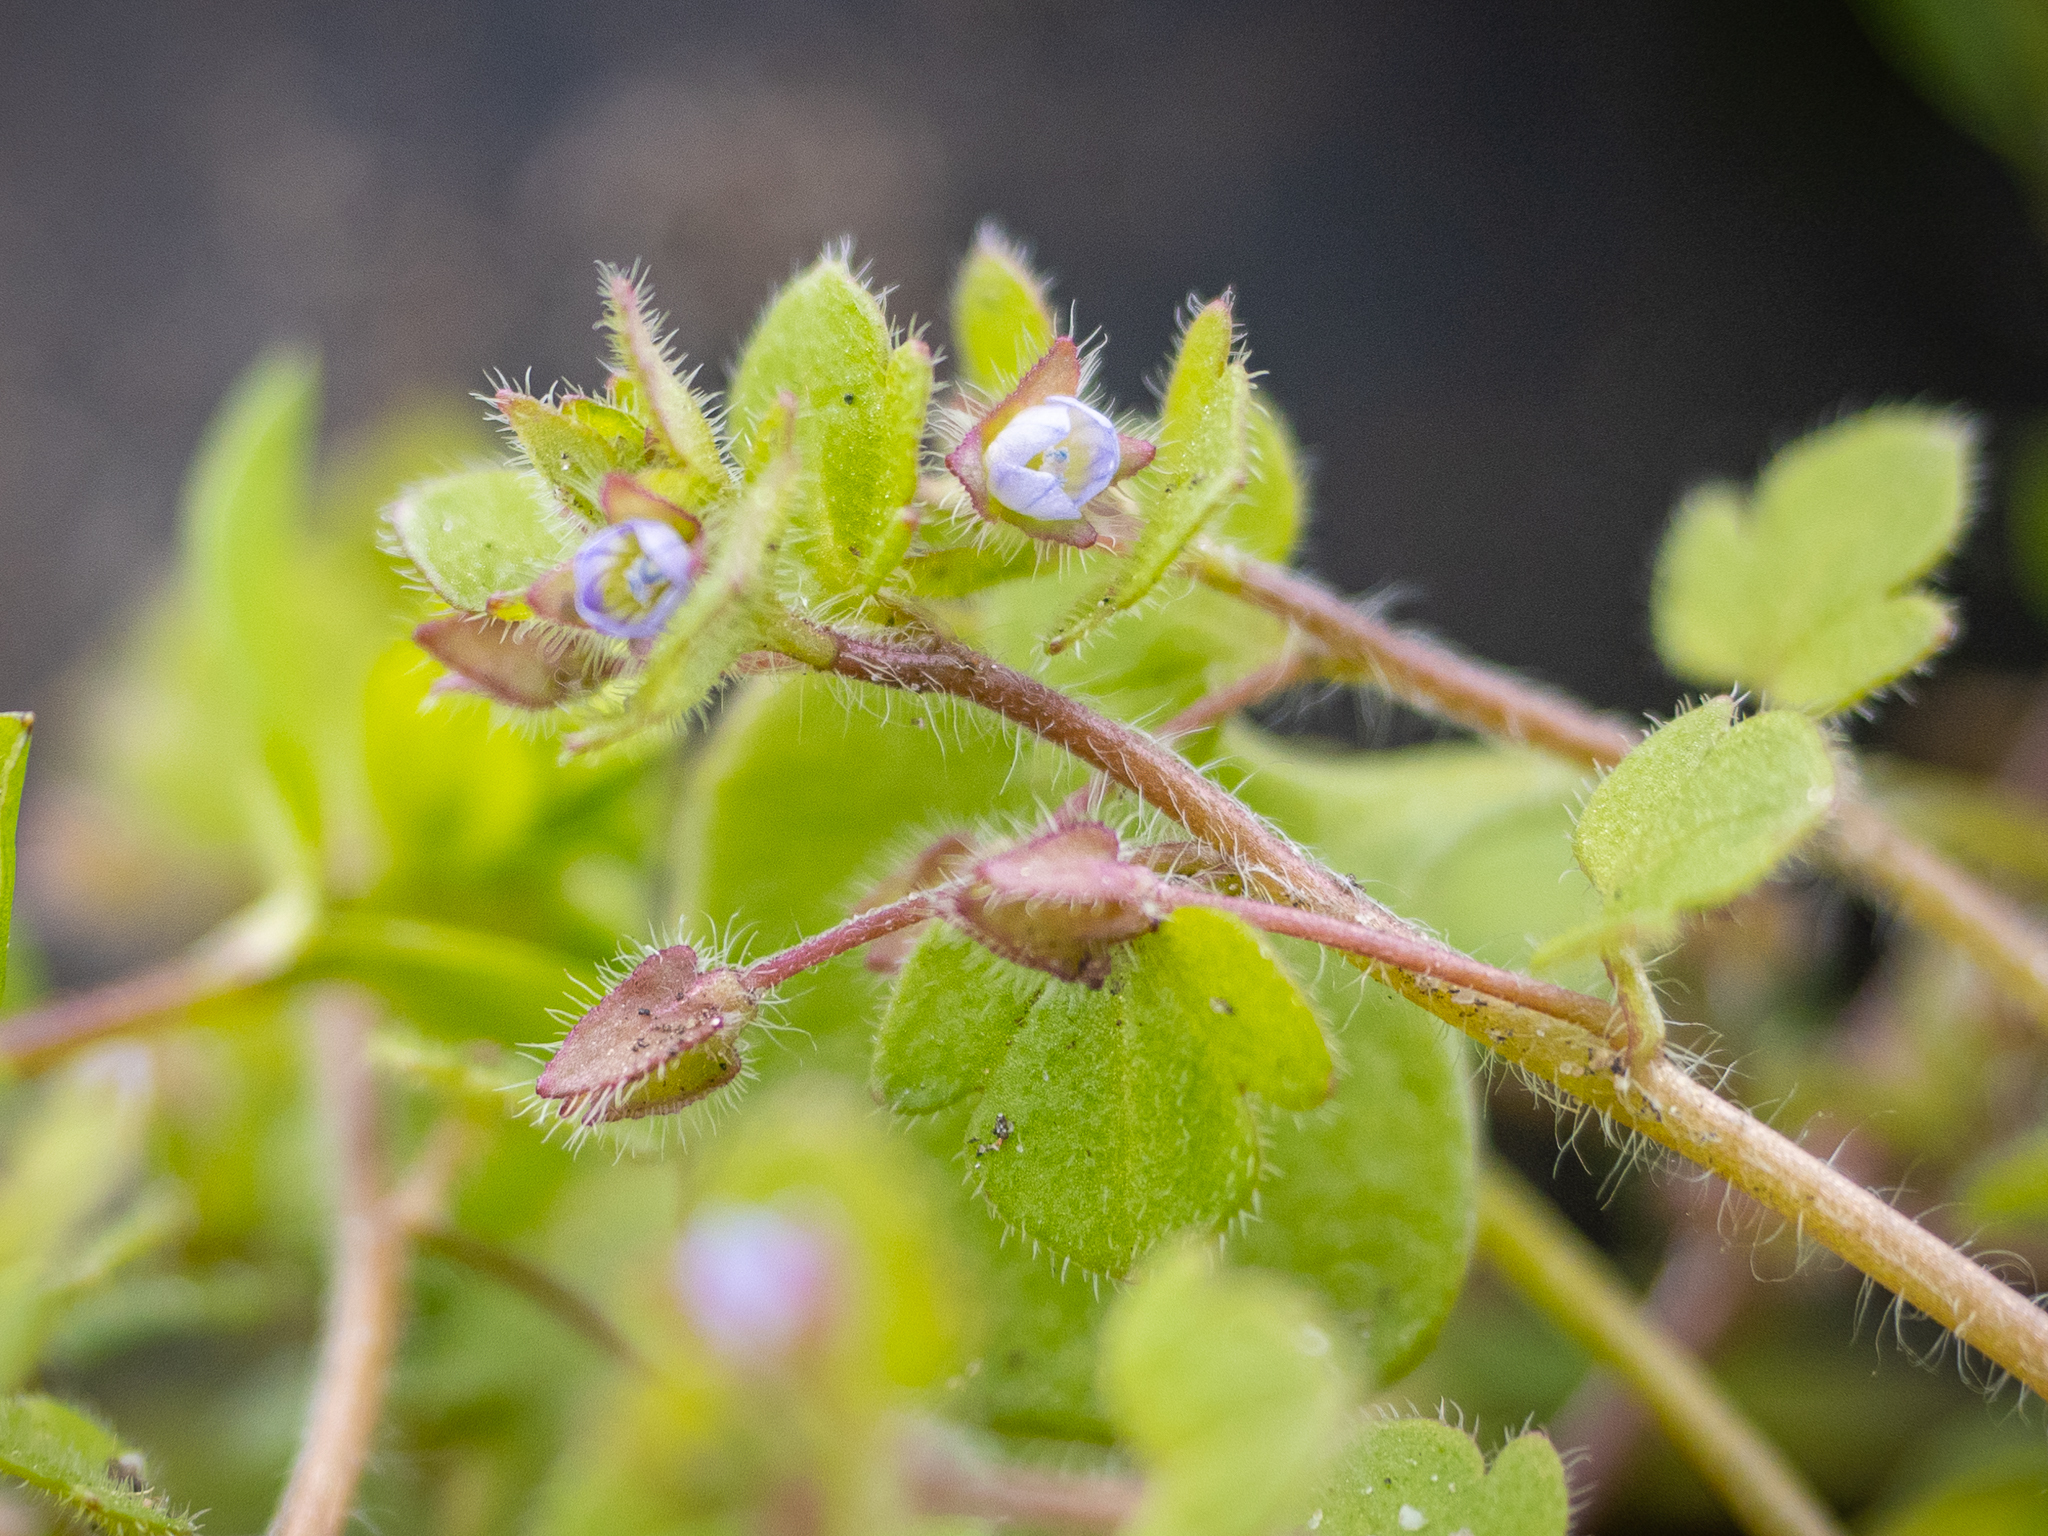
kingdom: Plantae
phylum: Tracheophyta
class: Magnoliopsida
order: Lamiales
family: Plantaginaceae
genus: Veronica
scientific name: Veronica sublobata
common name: False ivy-leaved speedwell
